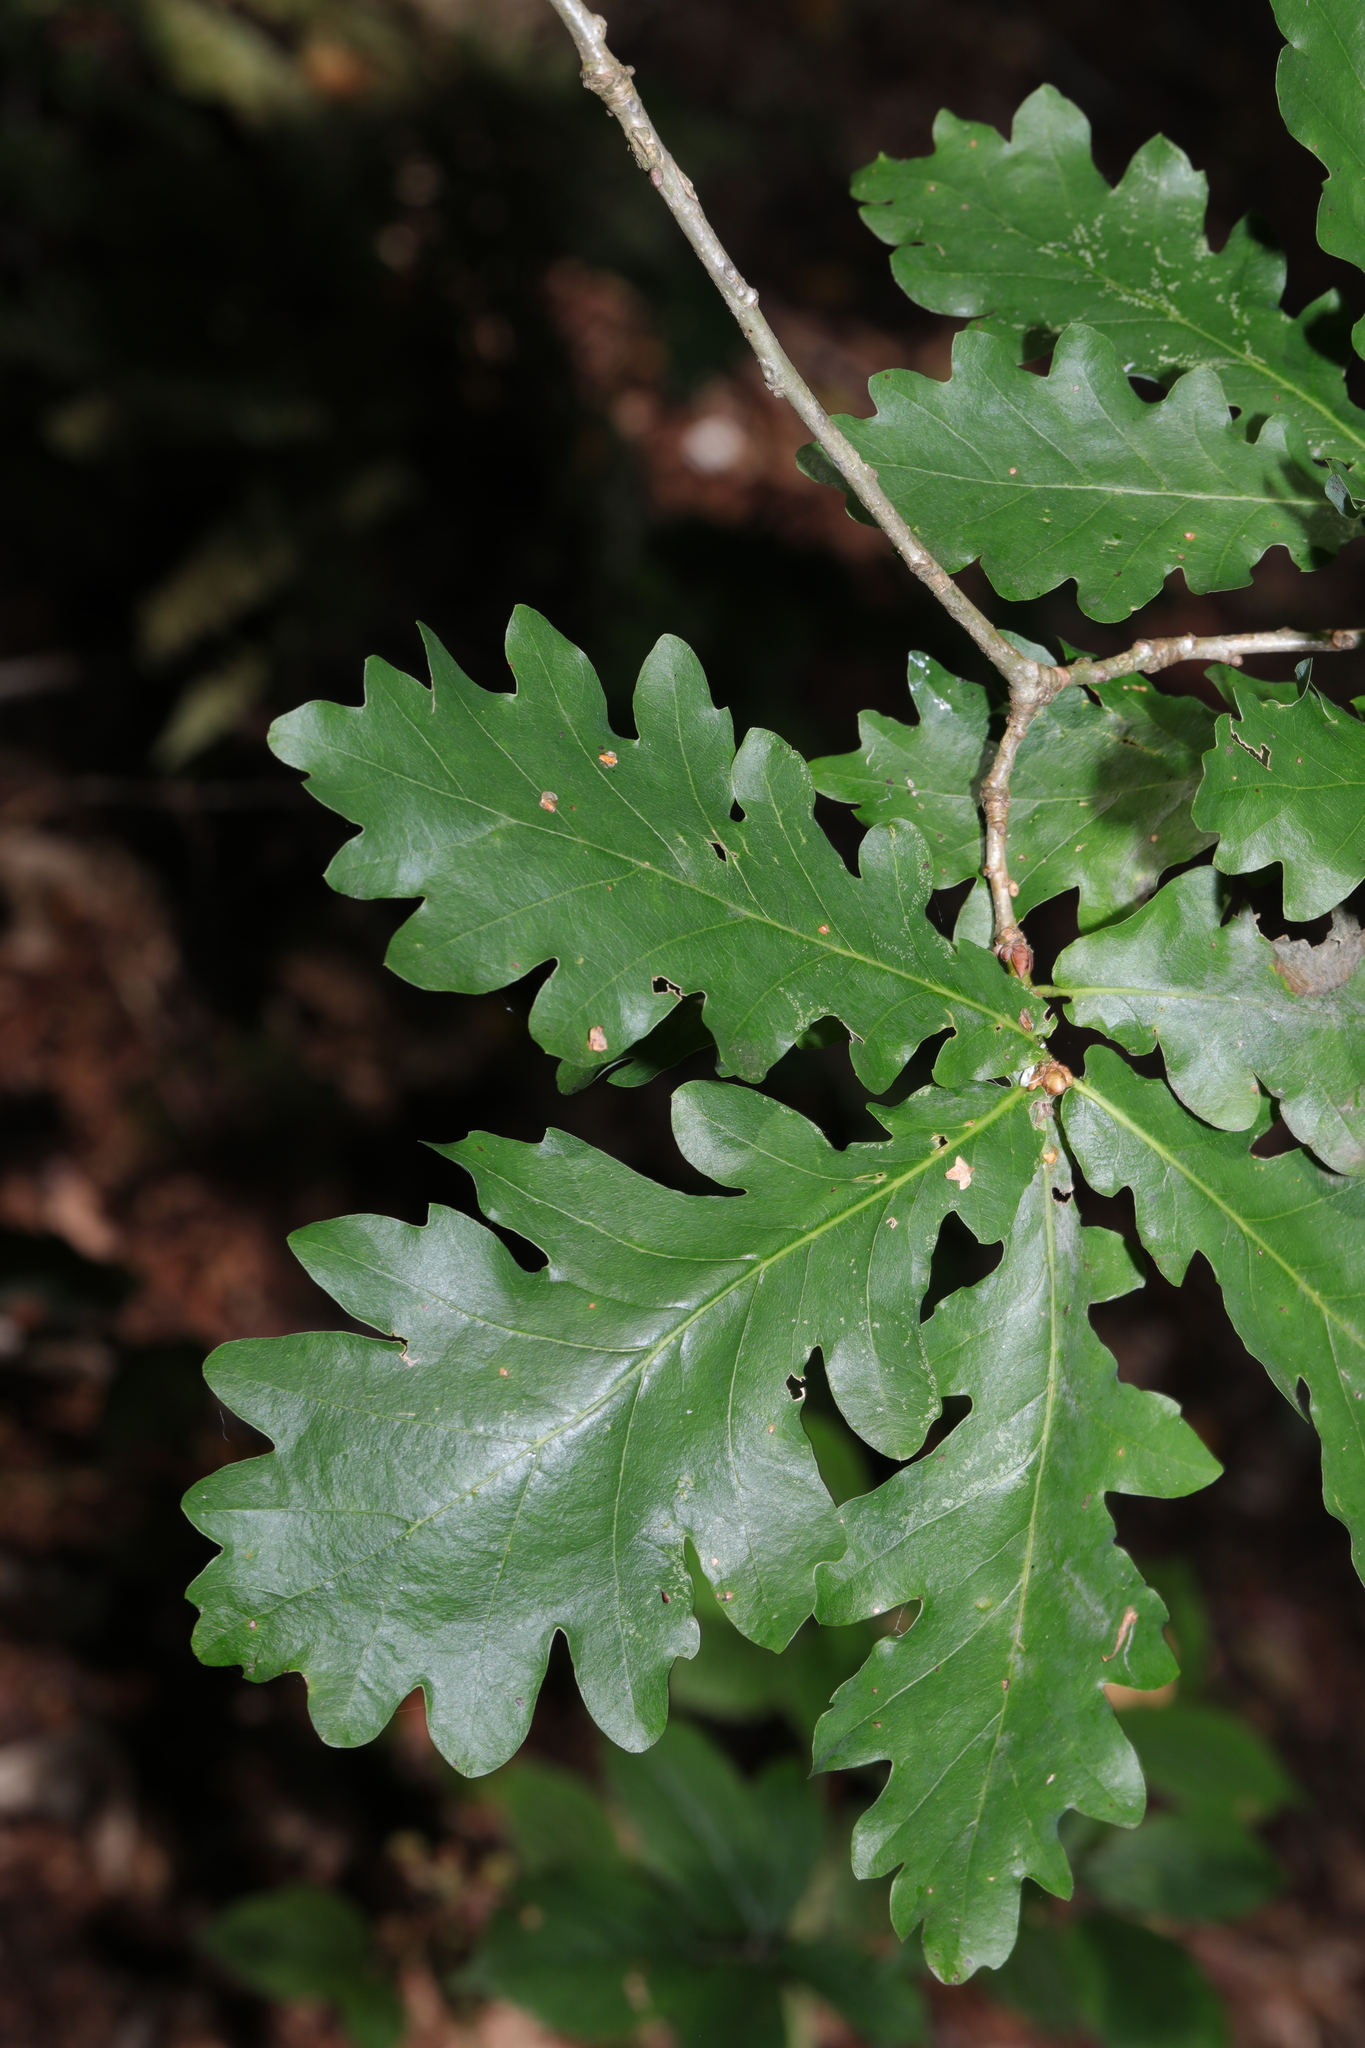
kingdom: Plantae
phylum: Tracheophyta
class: Magnoliopsida
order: Fagales
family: Fagaceae
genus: Quercus
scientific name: Quercus robur
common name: Pedunculate oak
